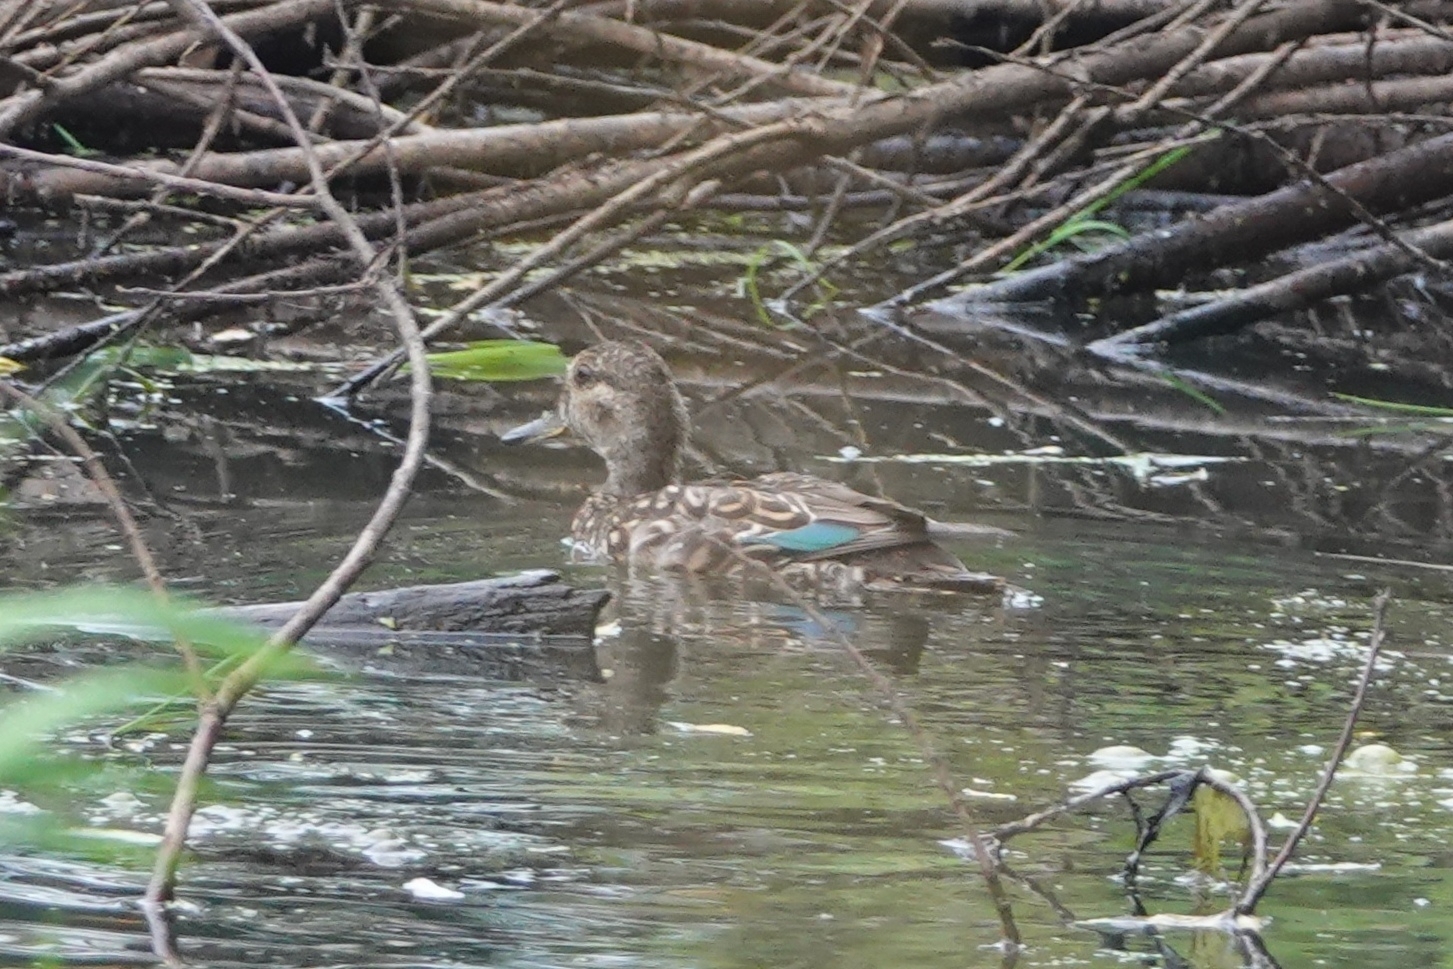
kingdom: Animalia
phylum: Chordata
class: Aves
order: Anseriformes
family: Anatidae
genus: Anas
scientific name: Anas crecca
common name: Eurasian teal
